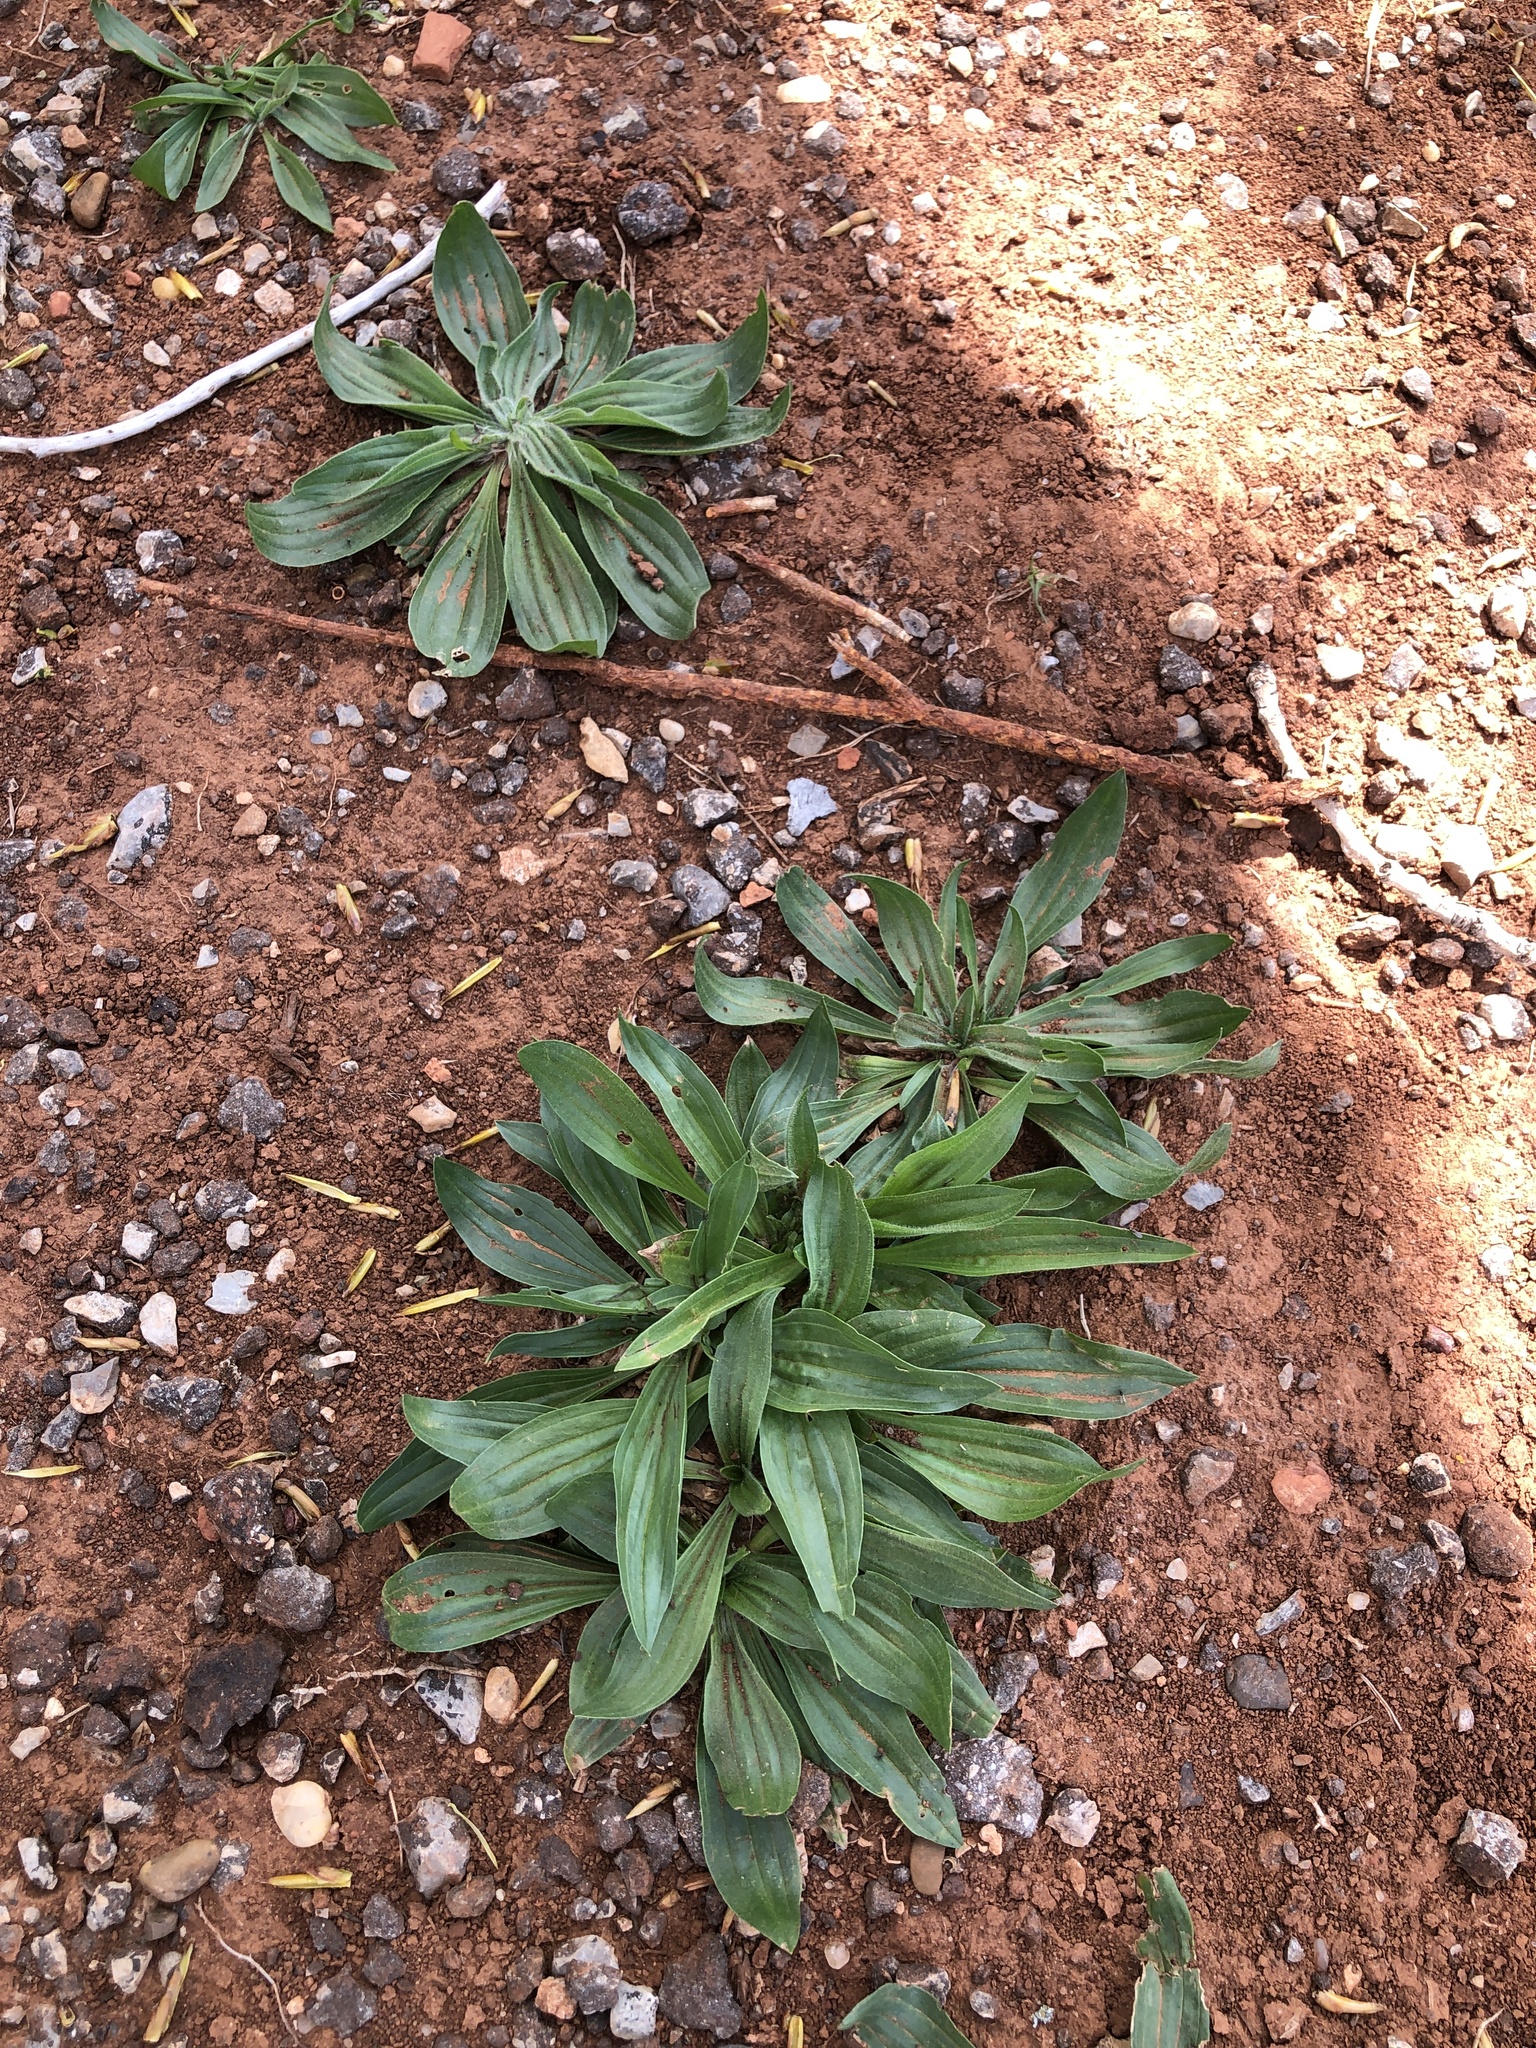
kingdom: Plantae
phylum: Tracheophyta
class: Magnoliopsida
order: Lamiales
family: Plantaginaceae
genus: Plantago
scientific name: Plantago lanceolata
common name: Ribwort plantain
